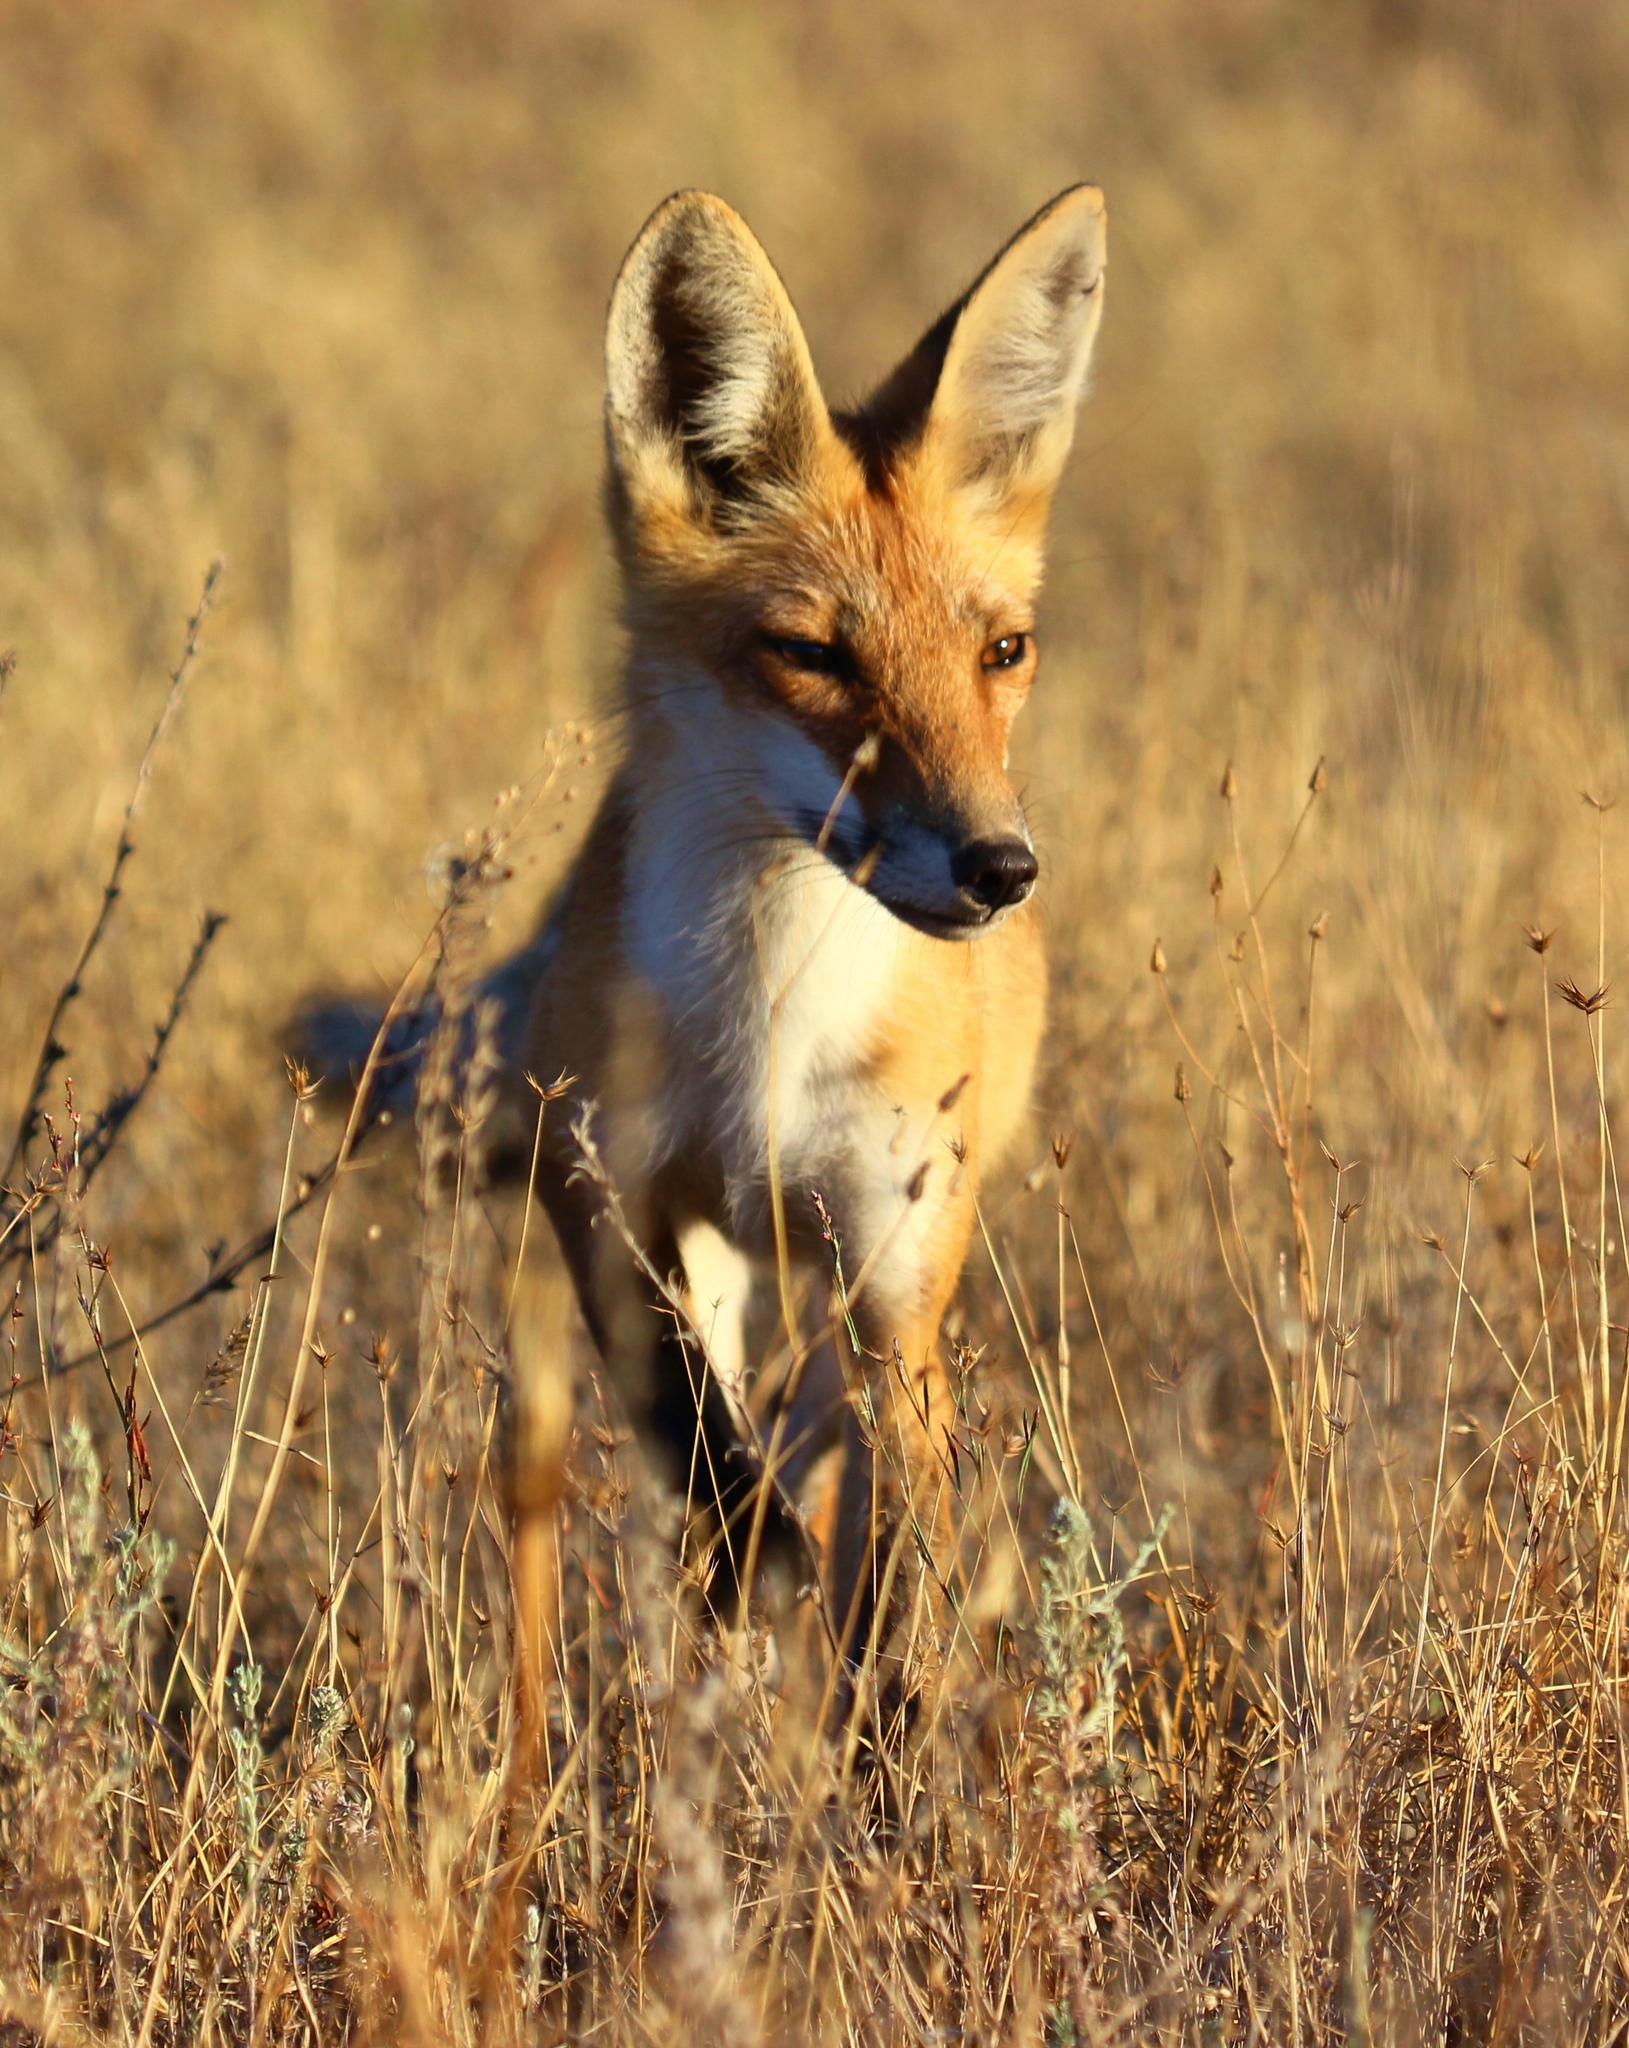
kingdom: Animalia
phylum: Chordata
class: Mammalia
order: Carnivora
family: Canidae
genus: Vulpes
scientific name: Vulpes vulpes
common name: Red fox
